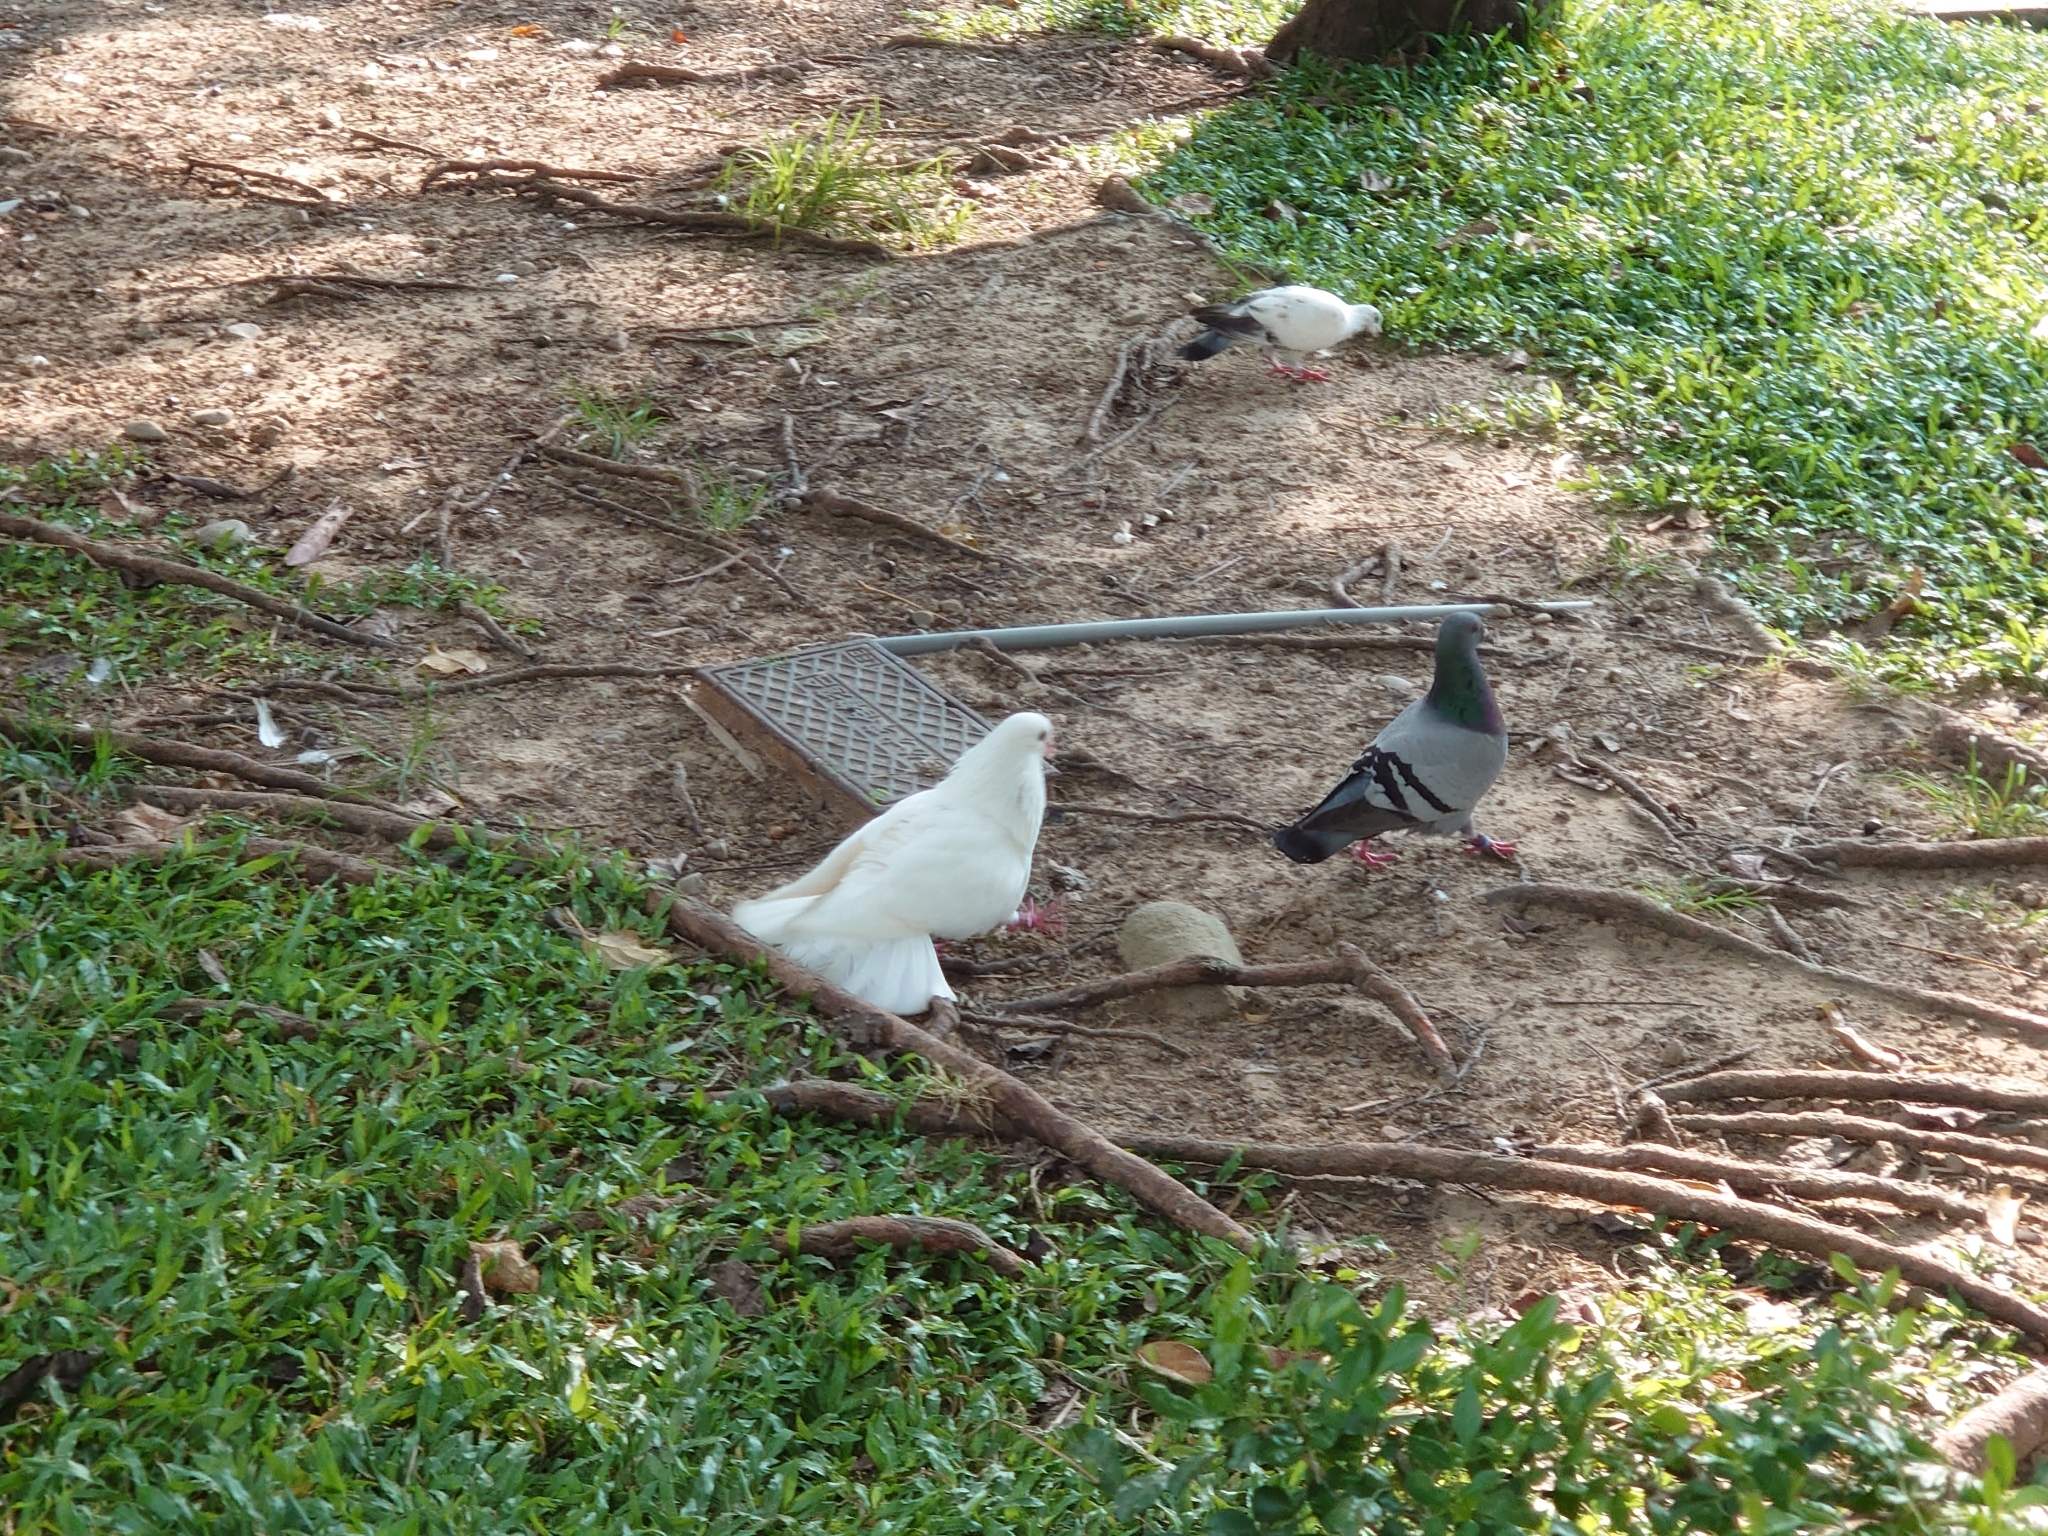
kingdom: Animalia
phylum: Chordata
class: Aves
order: Columbiformes
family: Columbidae
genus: Columba
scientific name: Columba livia
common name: Rock pigeon
